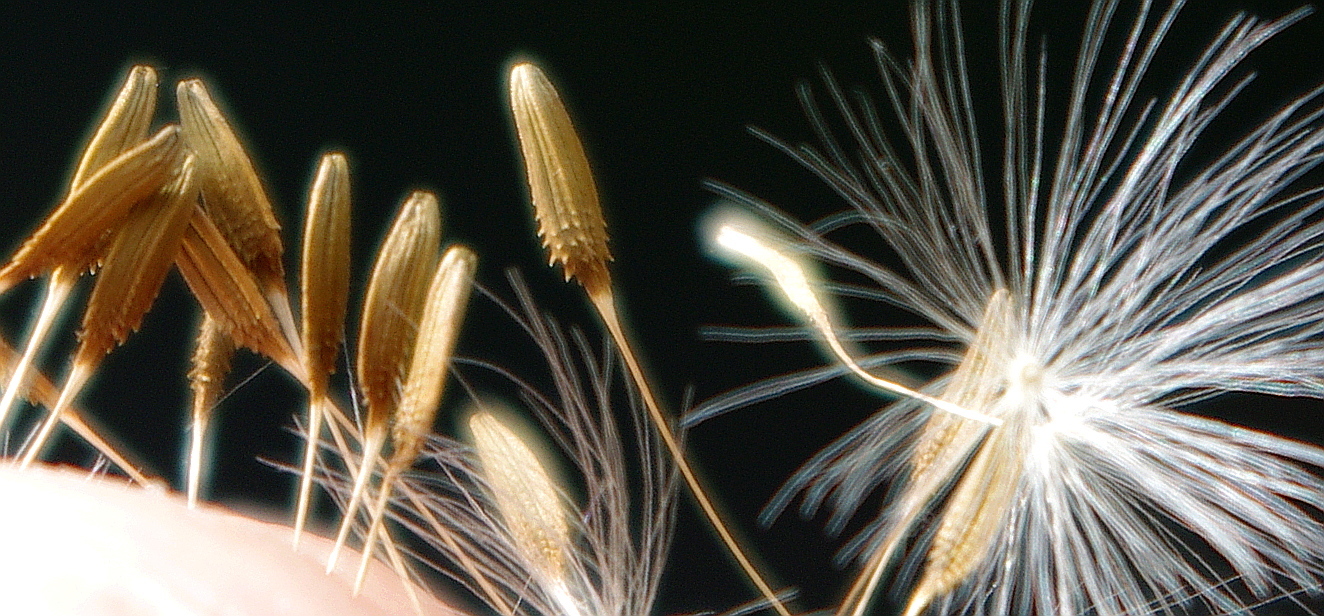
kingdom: Plantae
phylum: Tracheophyta
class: Magnoliopsida
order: Asterales
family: Asteraceae
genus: Taraxacum
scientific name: Taraxacum officinale
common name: Common dandelion
